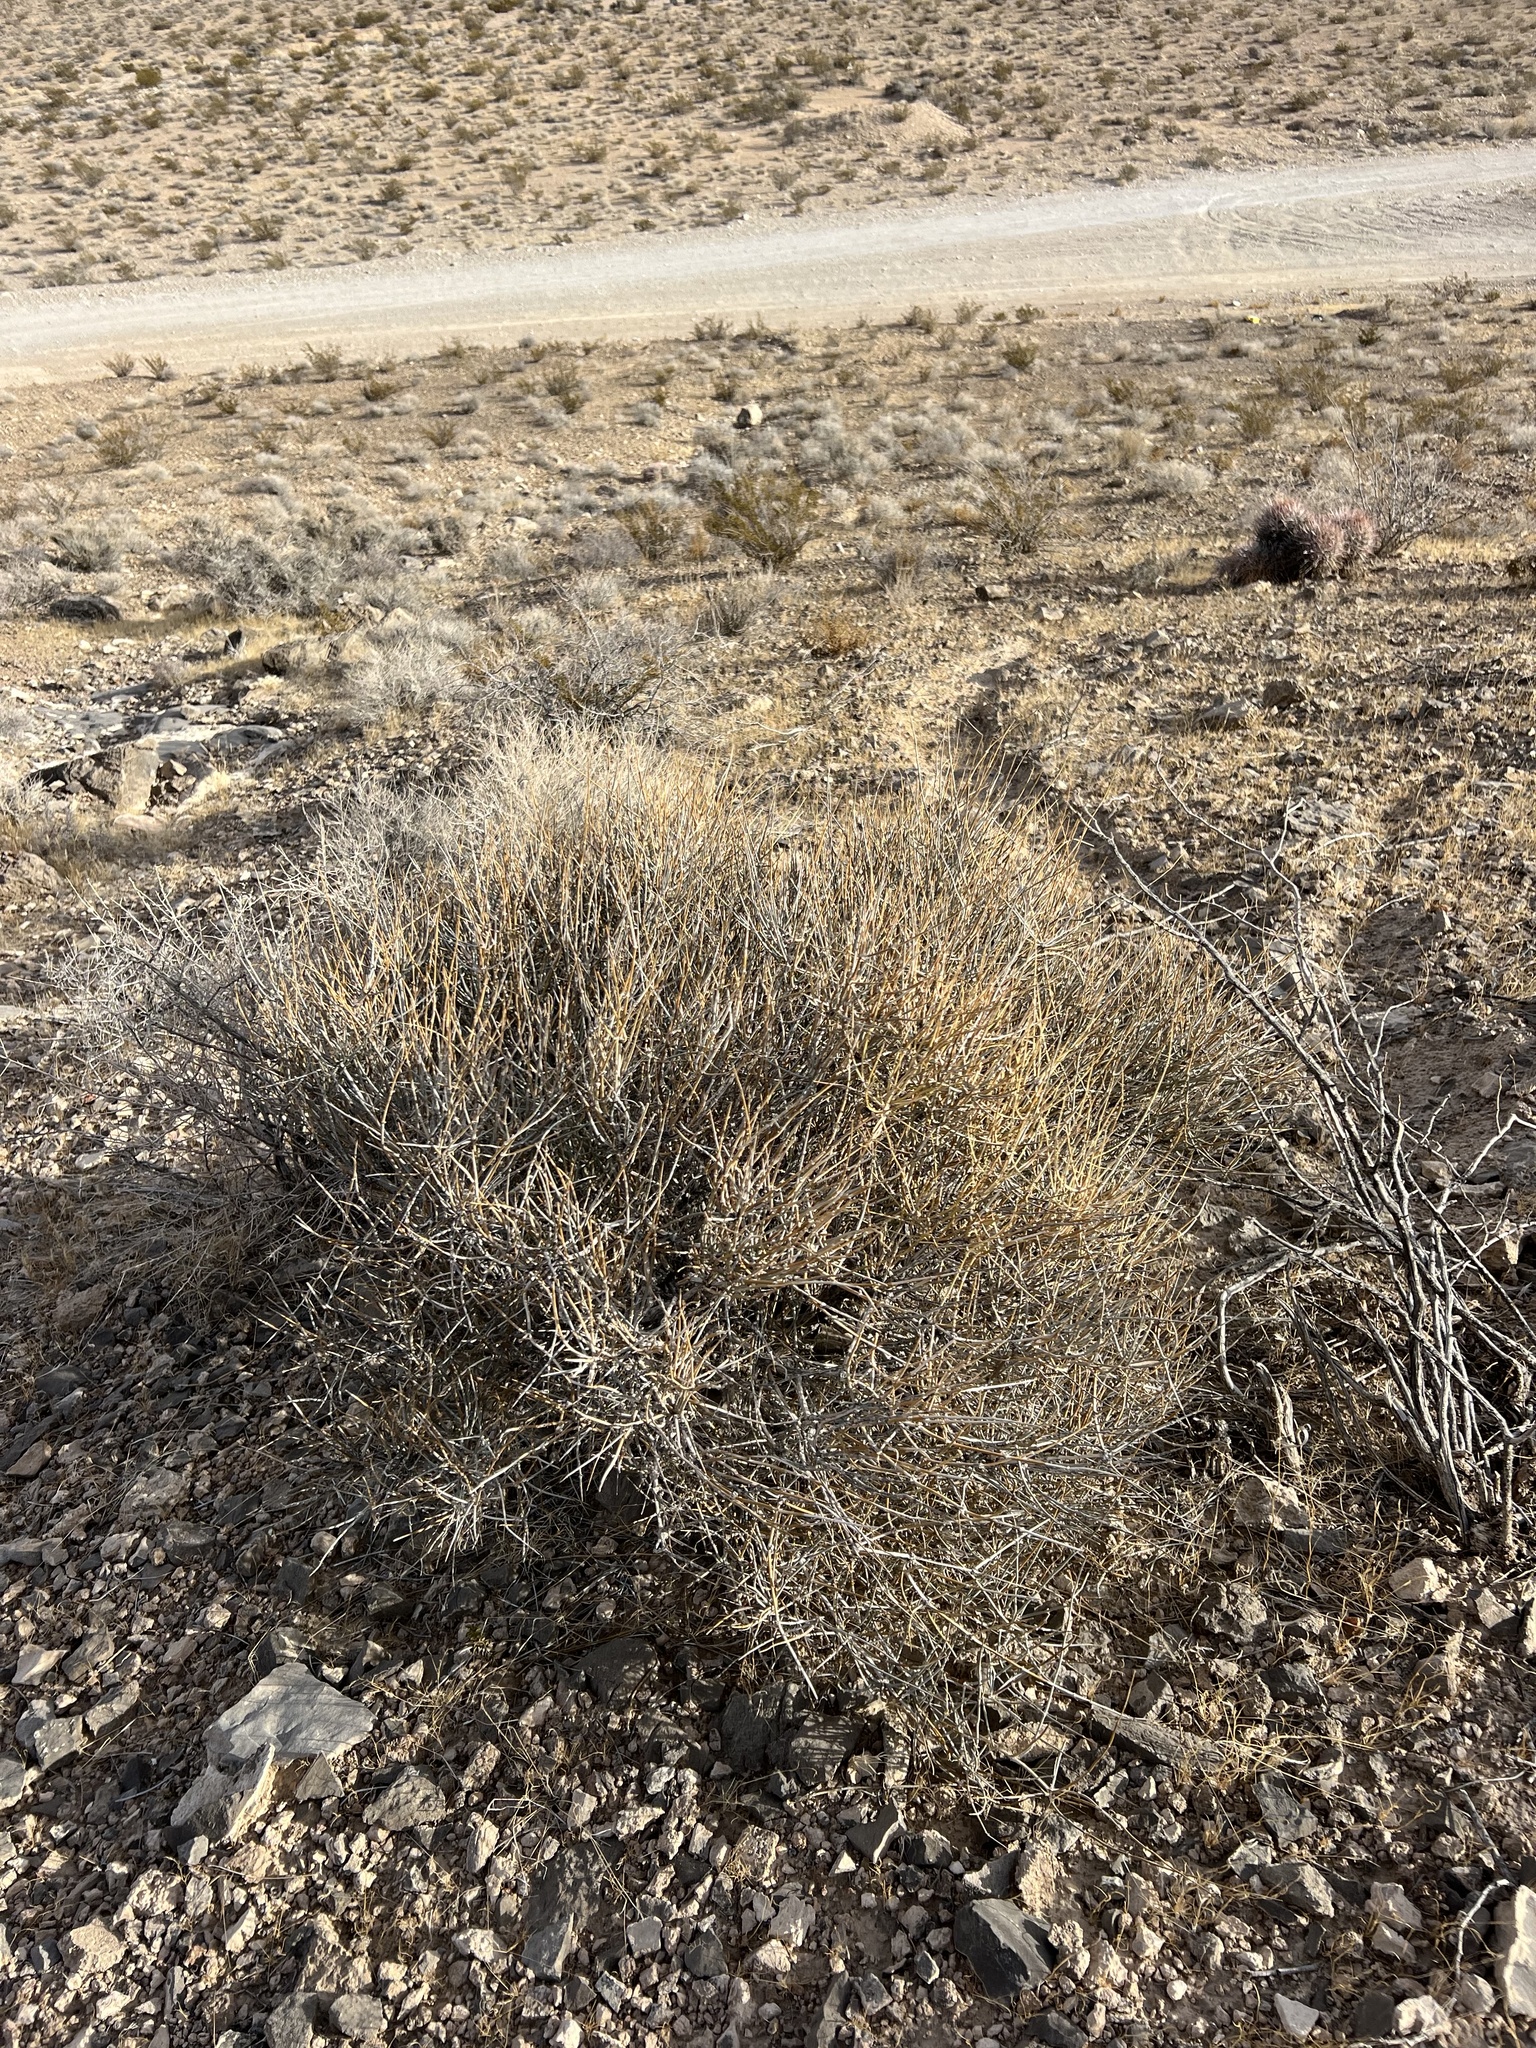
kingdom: Plantae
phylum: Tracheophyta
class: Gnetopsida
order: Ephedrales
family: Ephedraceae
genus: Ephedra
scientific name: Ephedra nevadensis
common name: Gray ephedra
